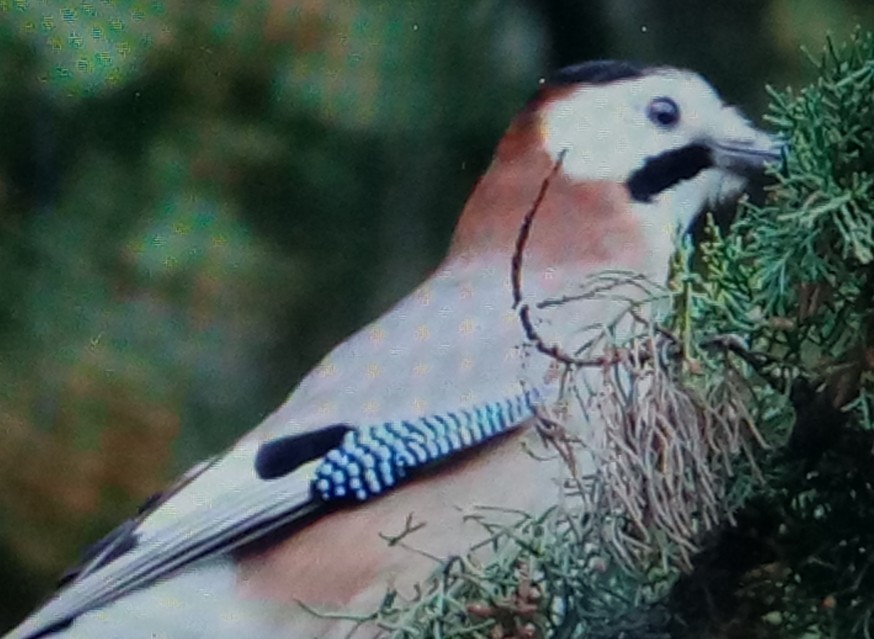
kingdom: Animalia
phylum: Chordata
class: Aves
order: Passeriformes
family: Corvidae
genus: Garrulus
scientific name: Garrulus glandarius
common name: Eurasian jay
